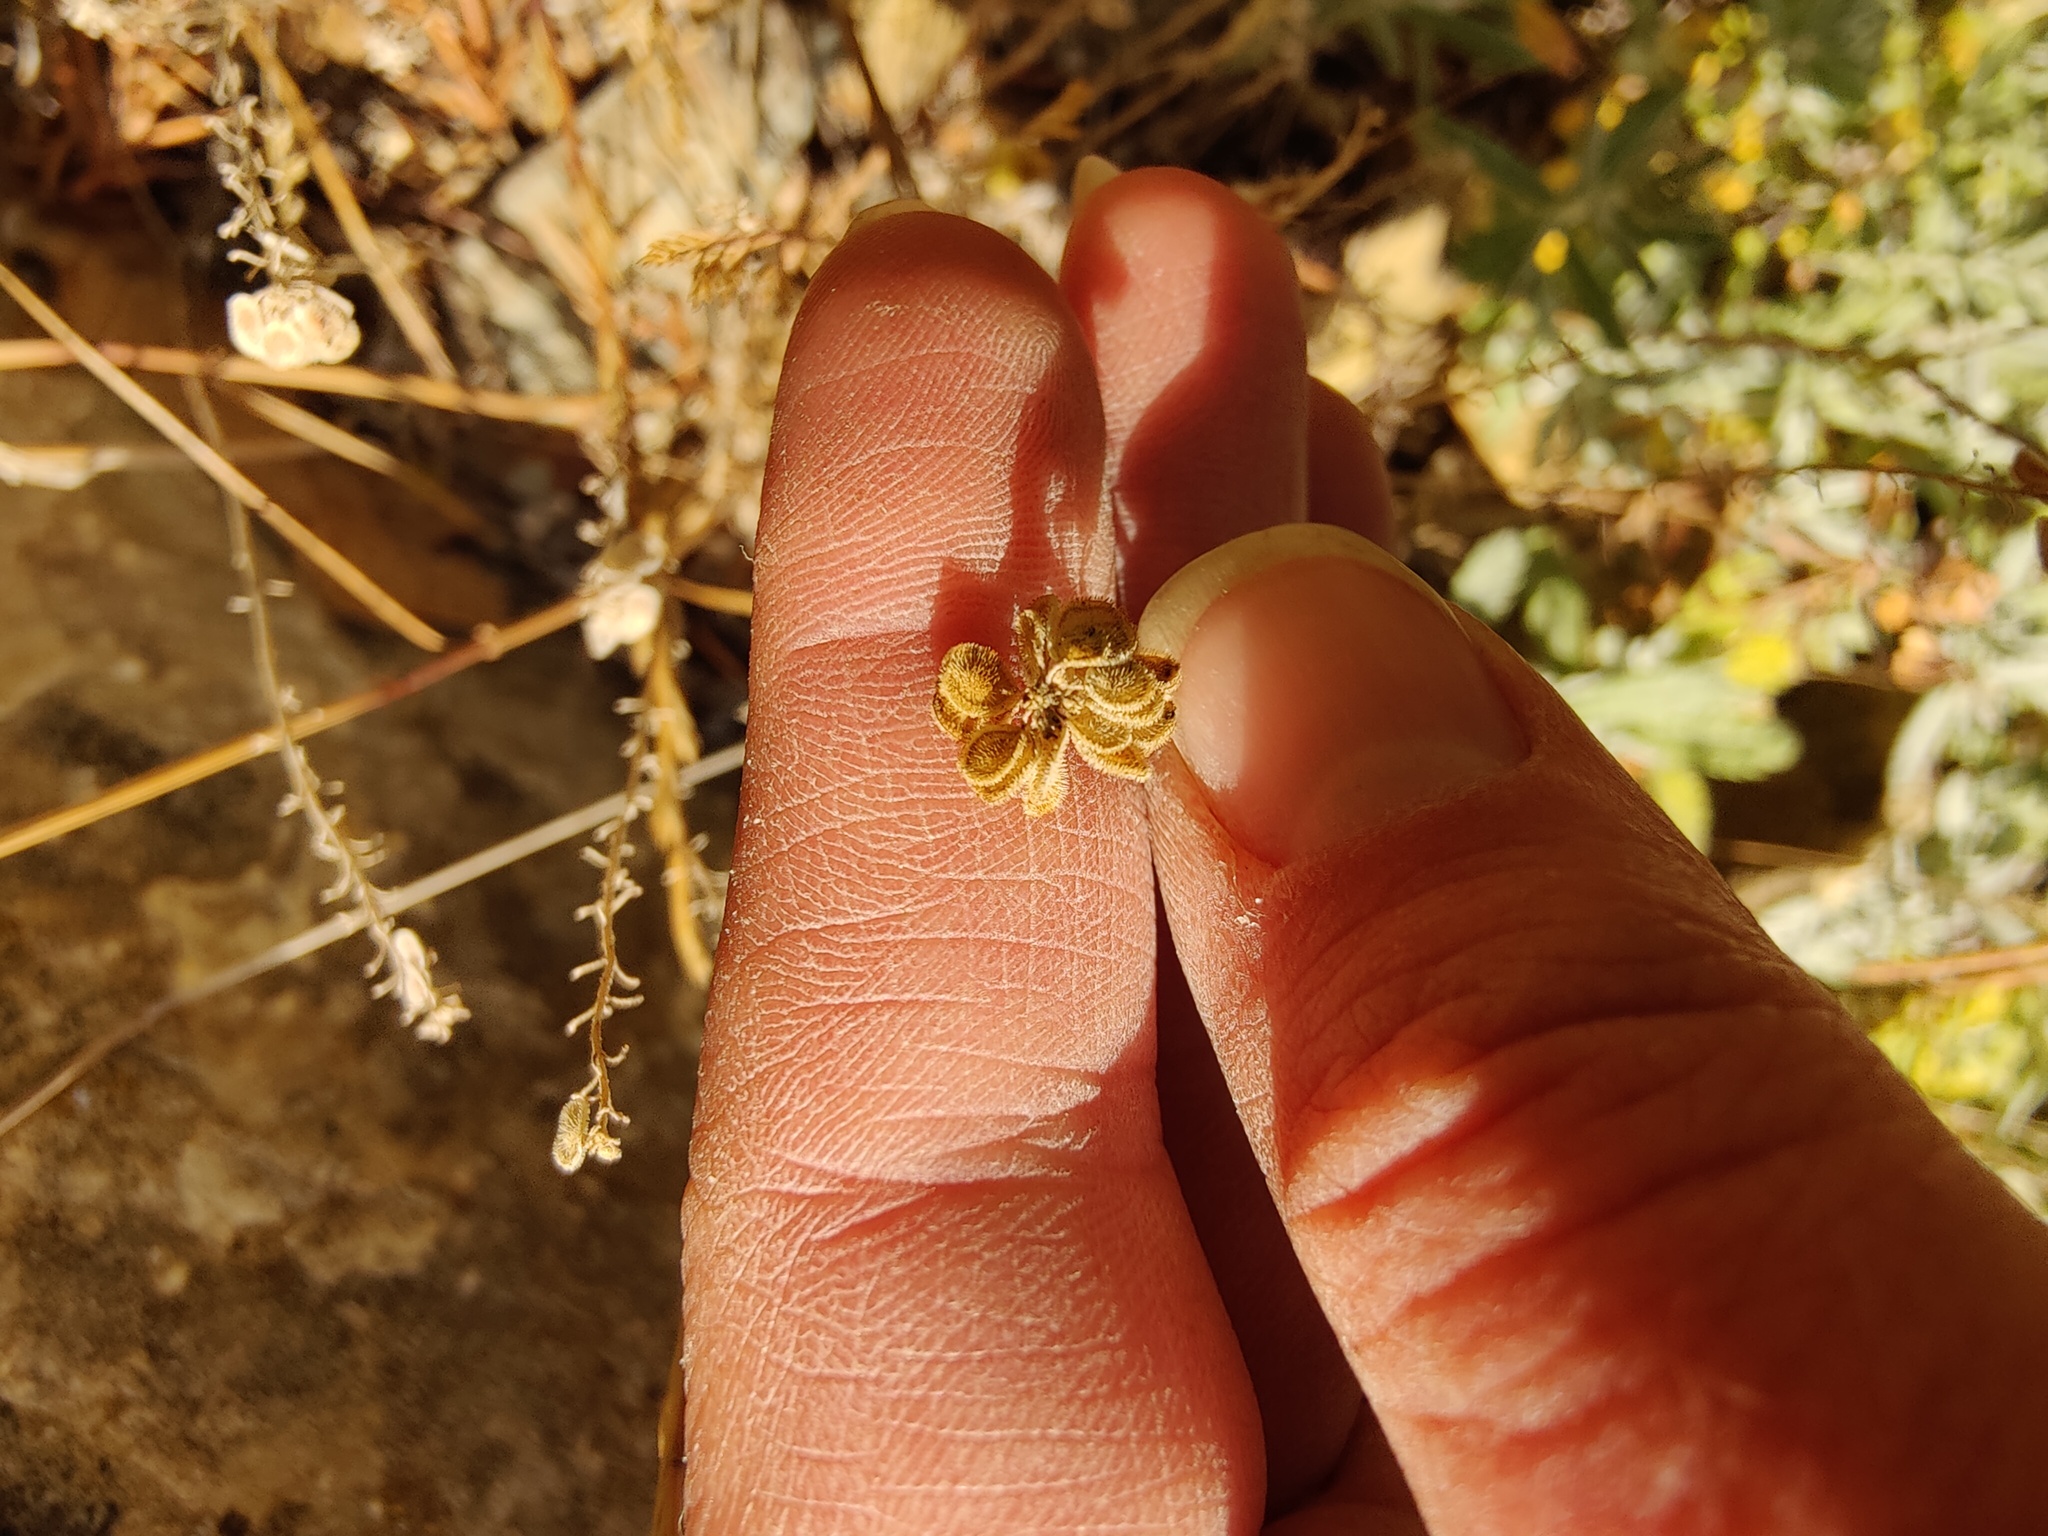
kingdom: Plantae
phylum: Tracheophyta
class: Magnoliopsida
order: Brassicales
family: Brassicaceae
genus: Clypeola
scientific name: Clypeola jonthlaspi
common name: Disk cress
